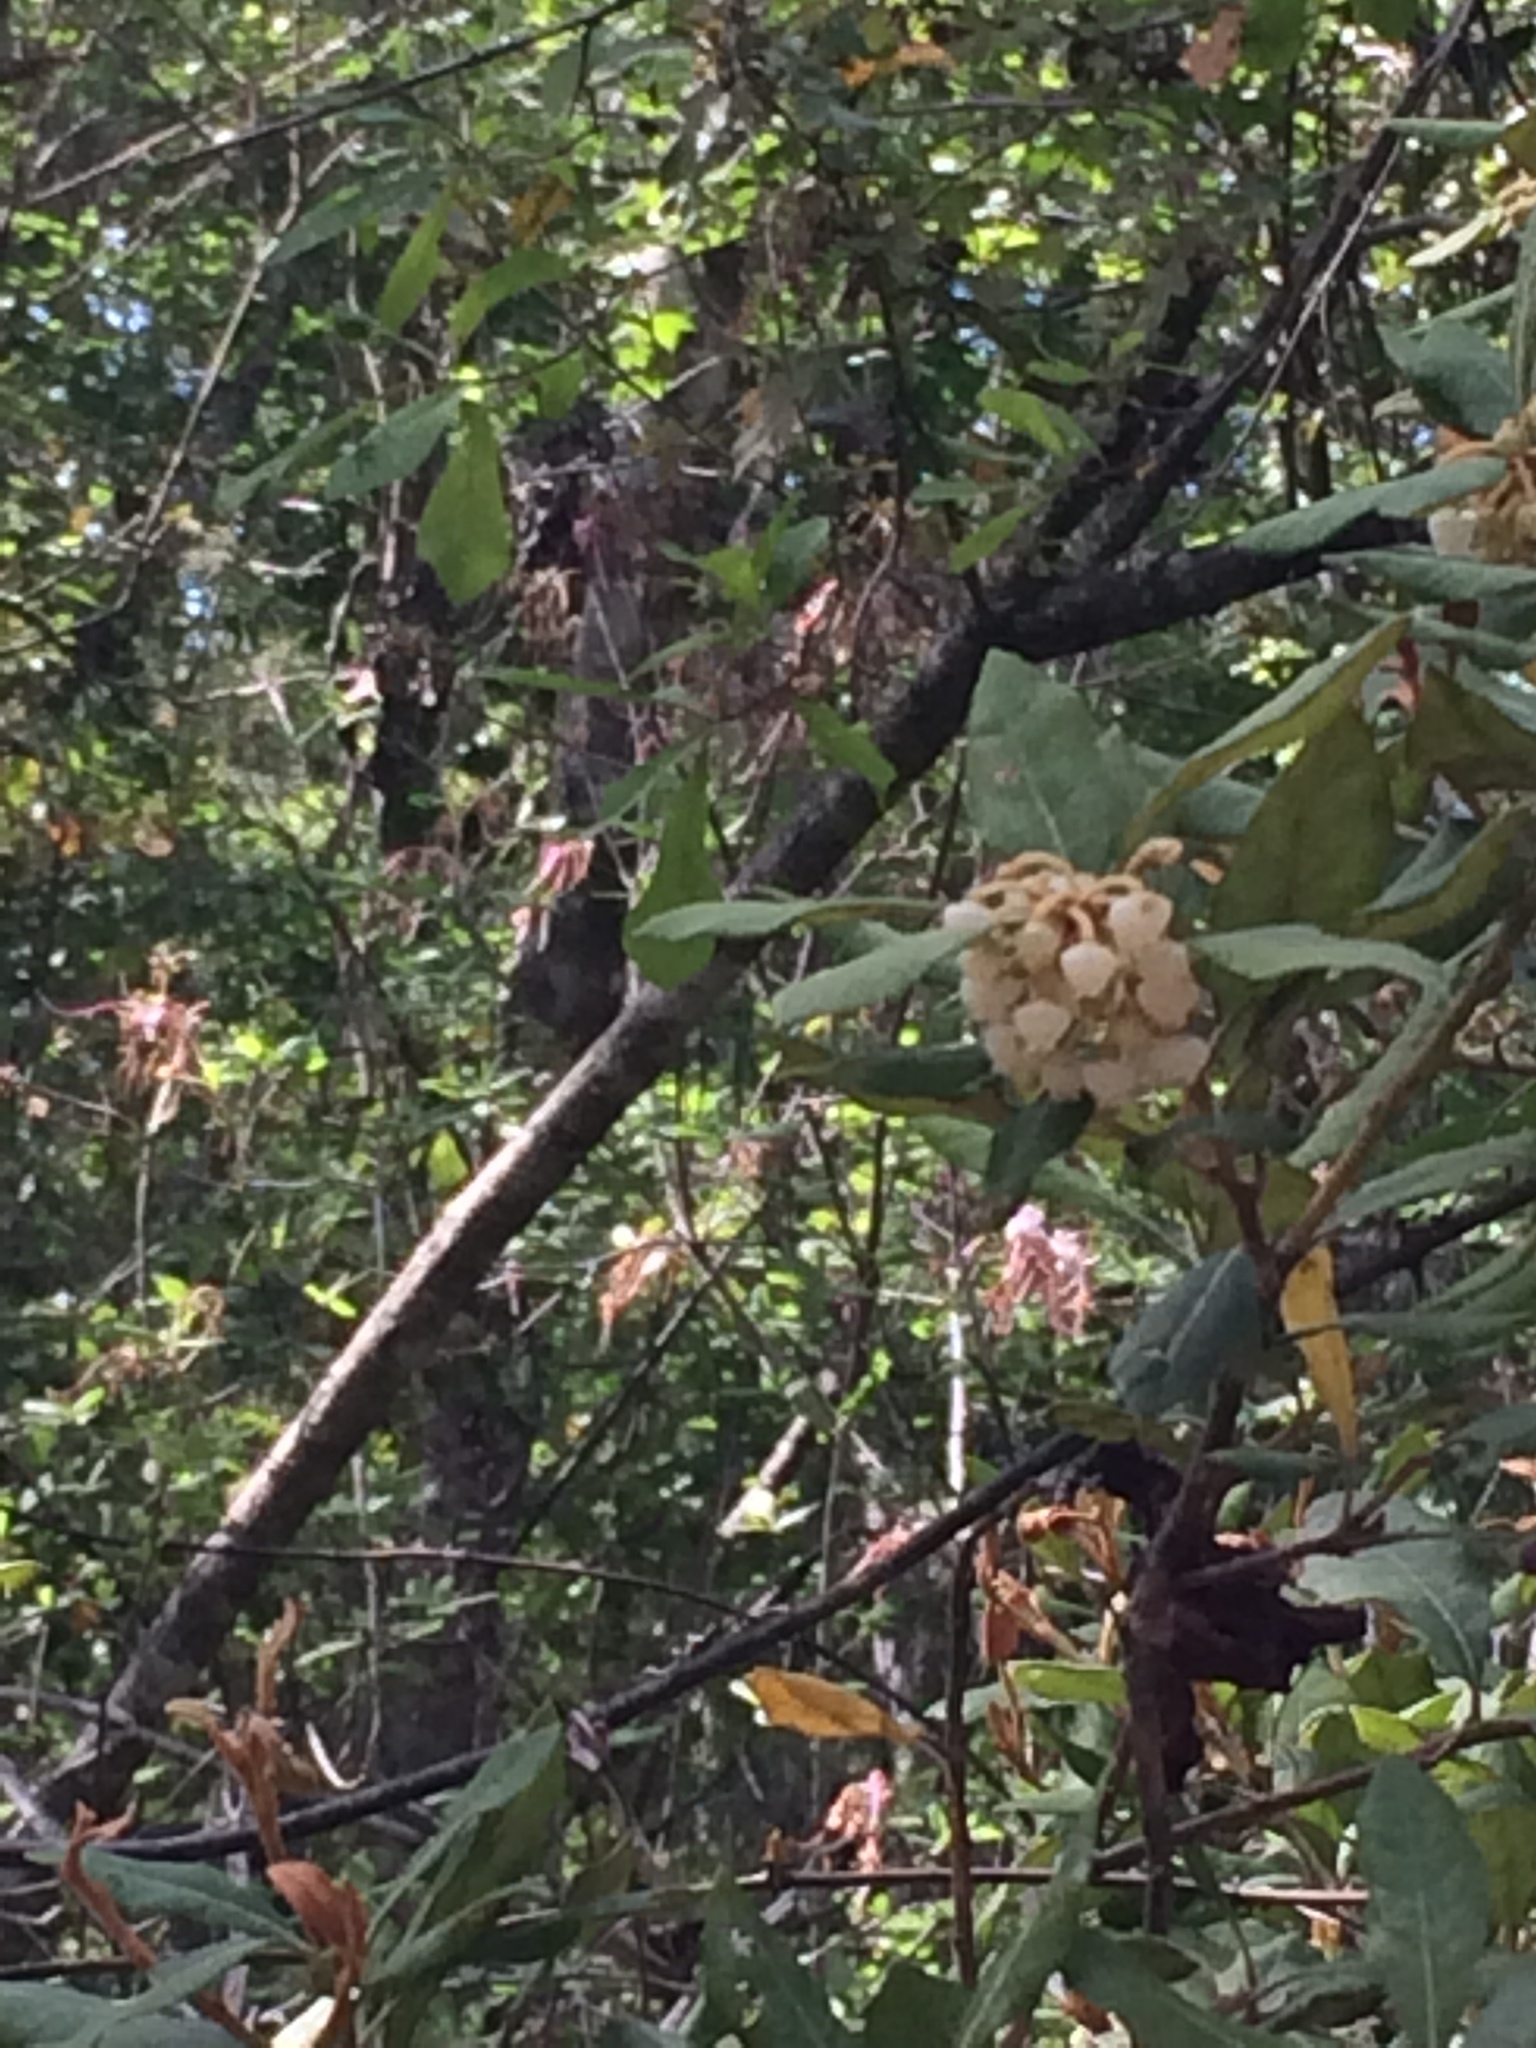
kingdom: Plantae
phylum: Tracheophyta
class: Magnoliopsida
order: Ericales
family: Ericaceae
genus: Lyonia
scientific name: Lyonia ferruginea
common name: Rusty lyonia
